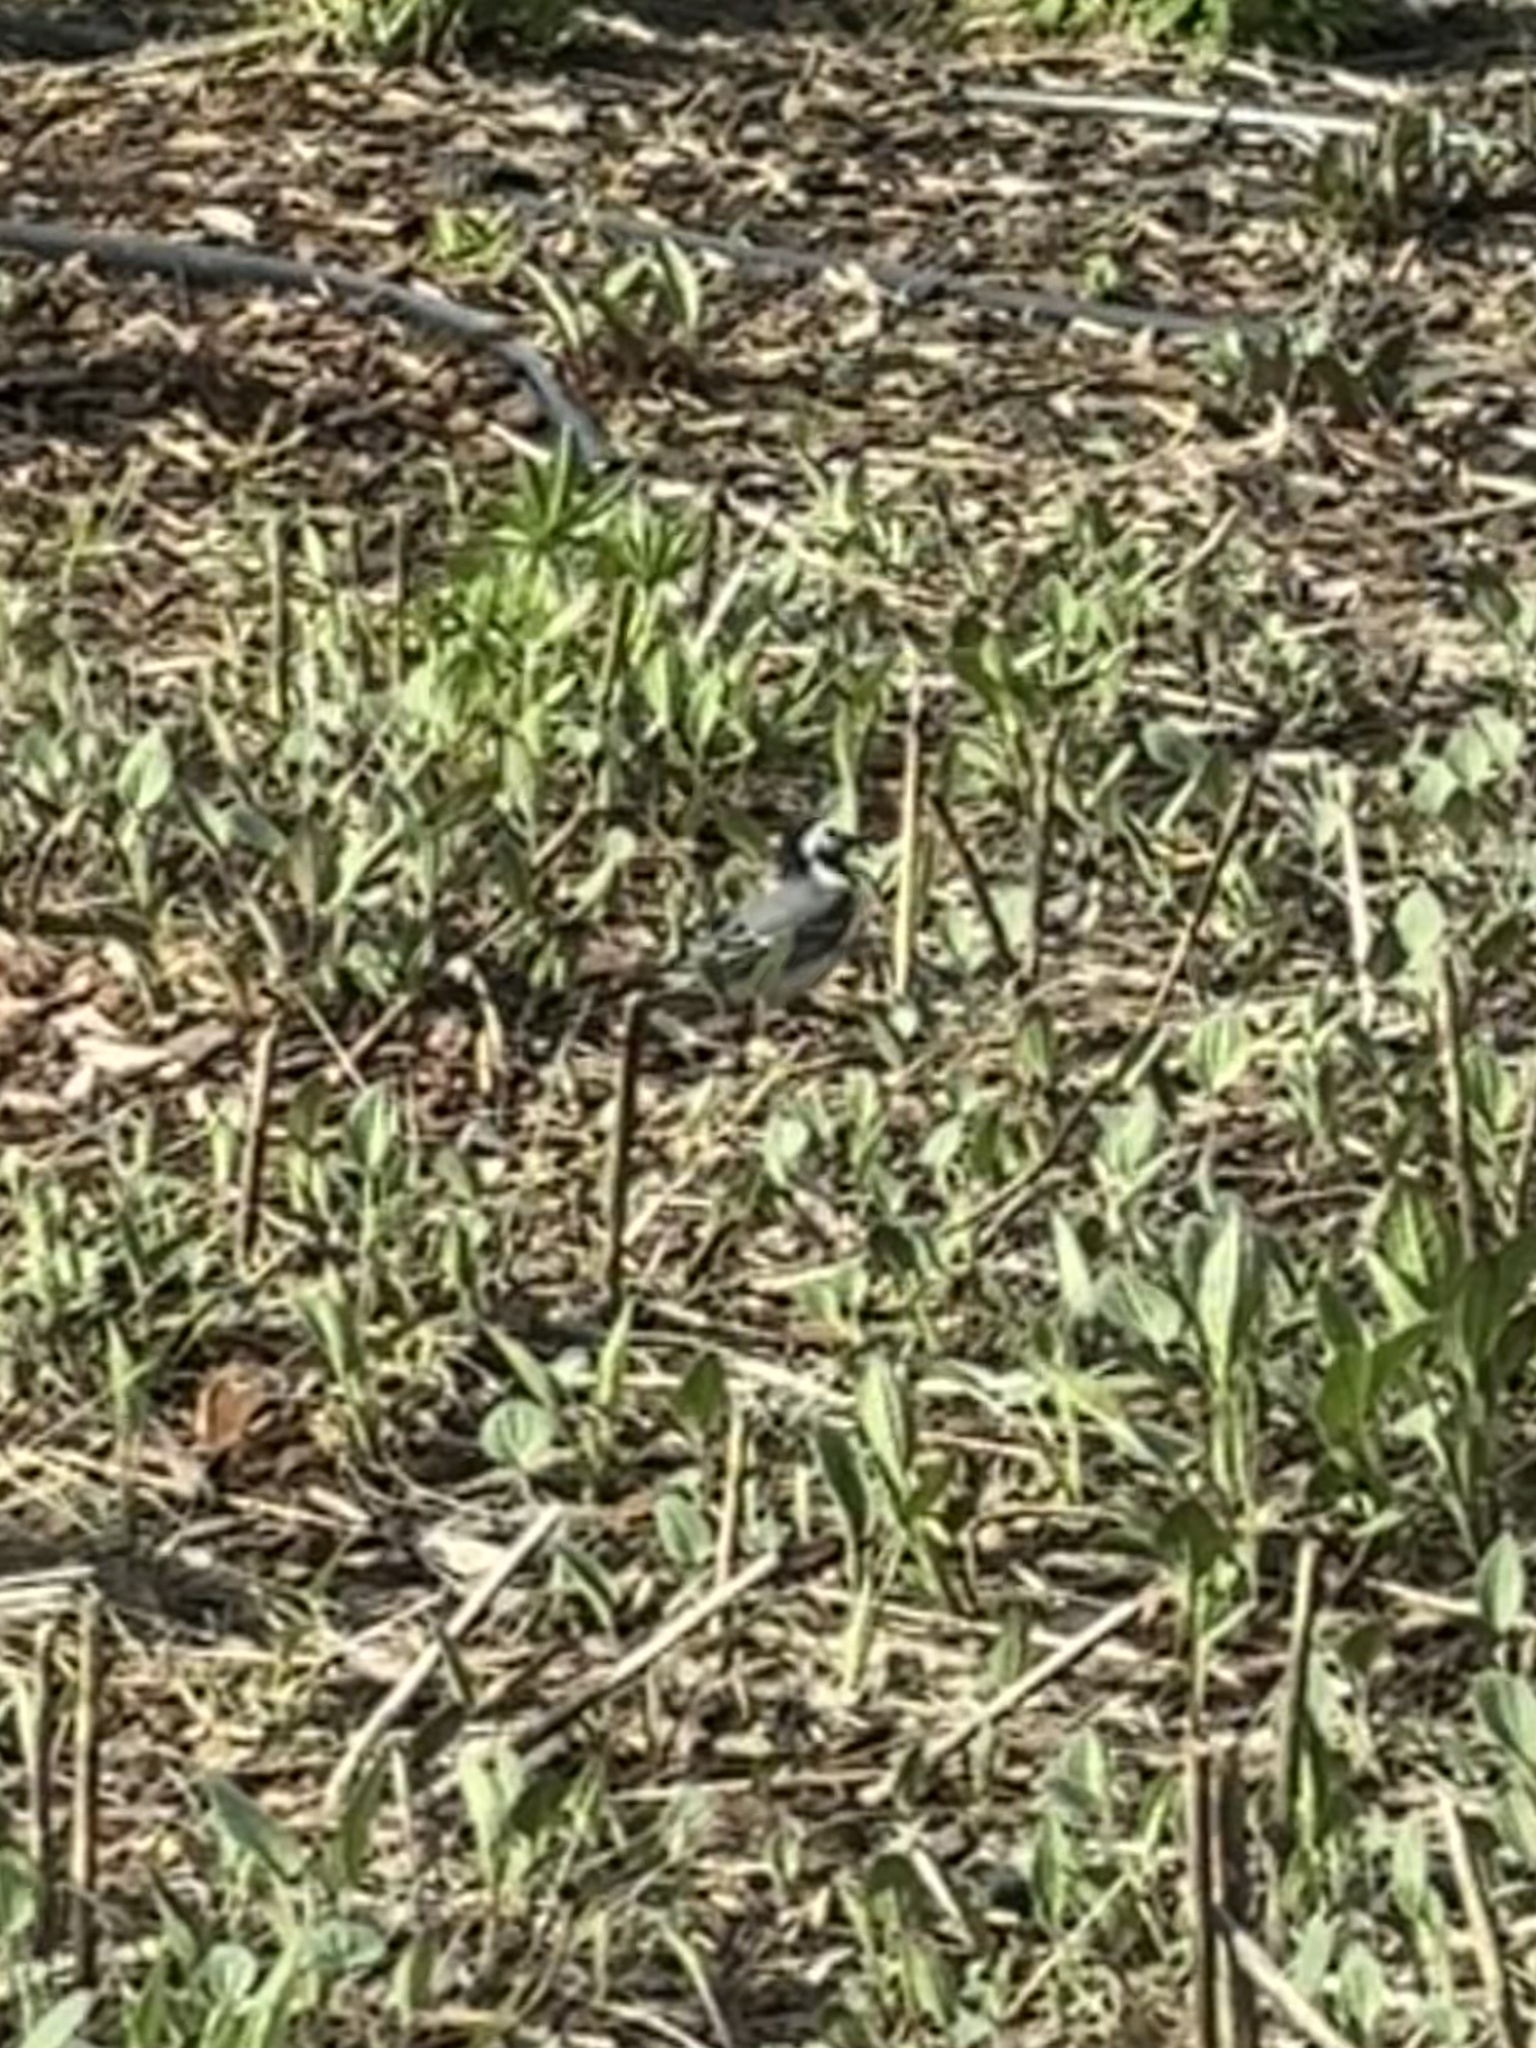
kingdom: Animalia
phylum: Chordata
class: Aves
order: Passeriformes
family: Motacillidae
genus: Motacilla
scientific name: Motacilla alba
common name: White wagtail
